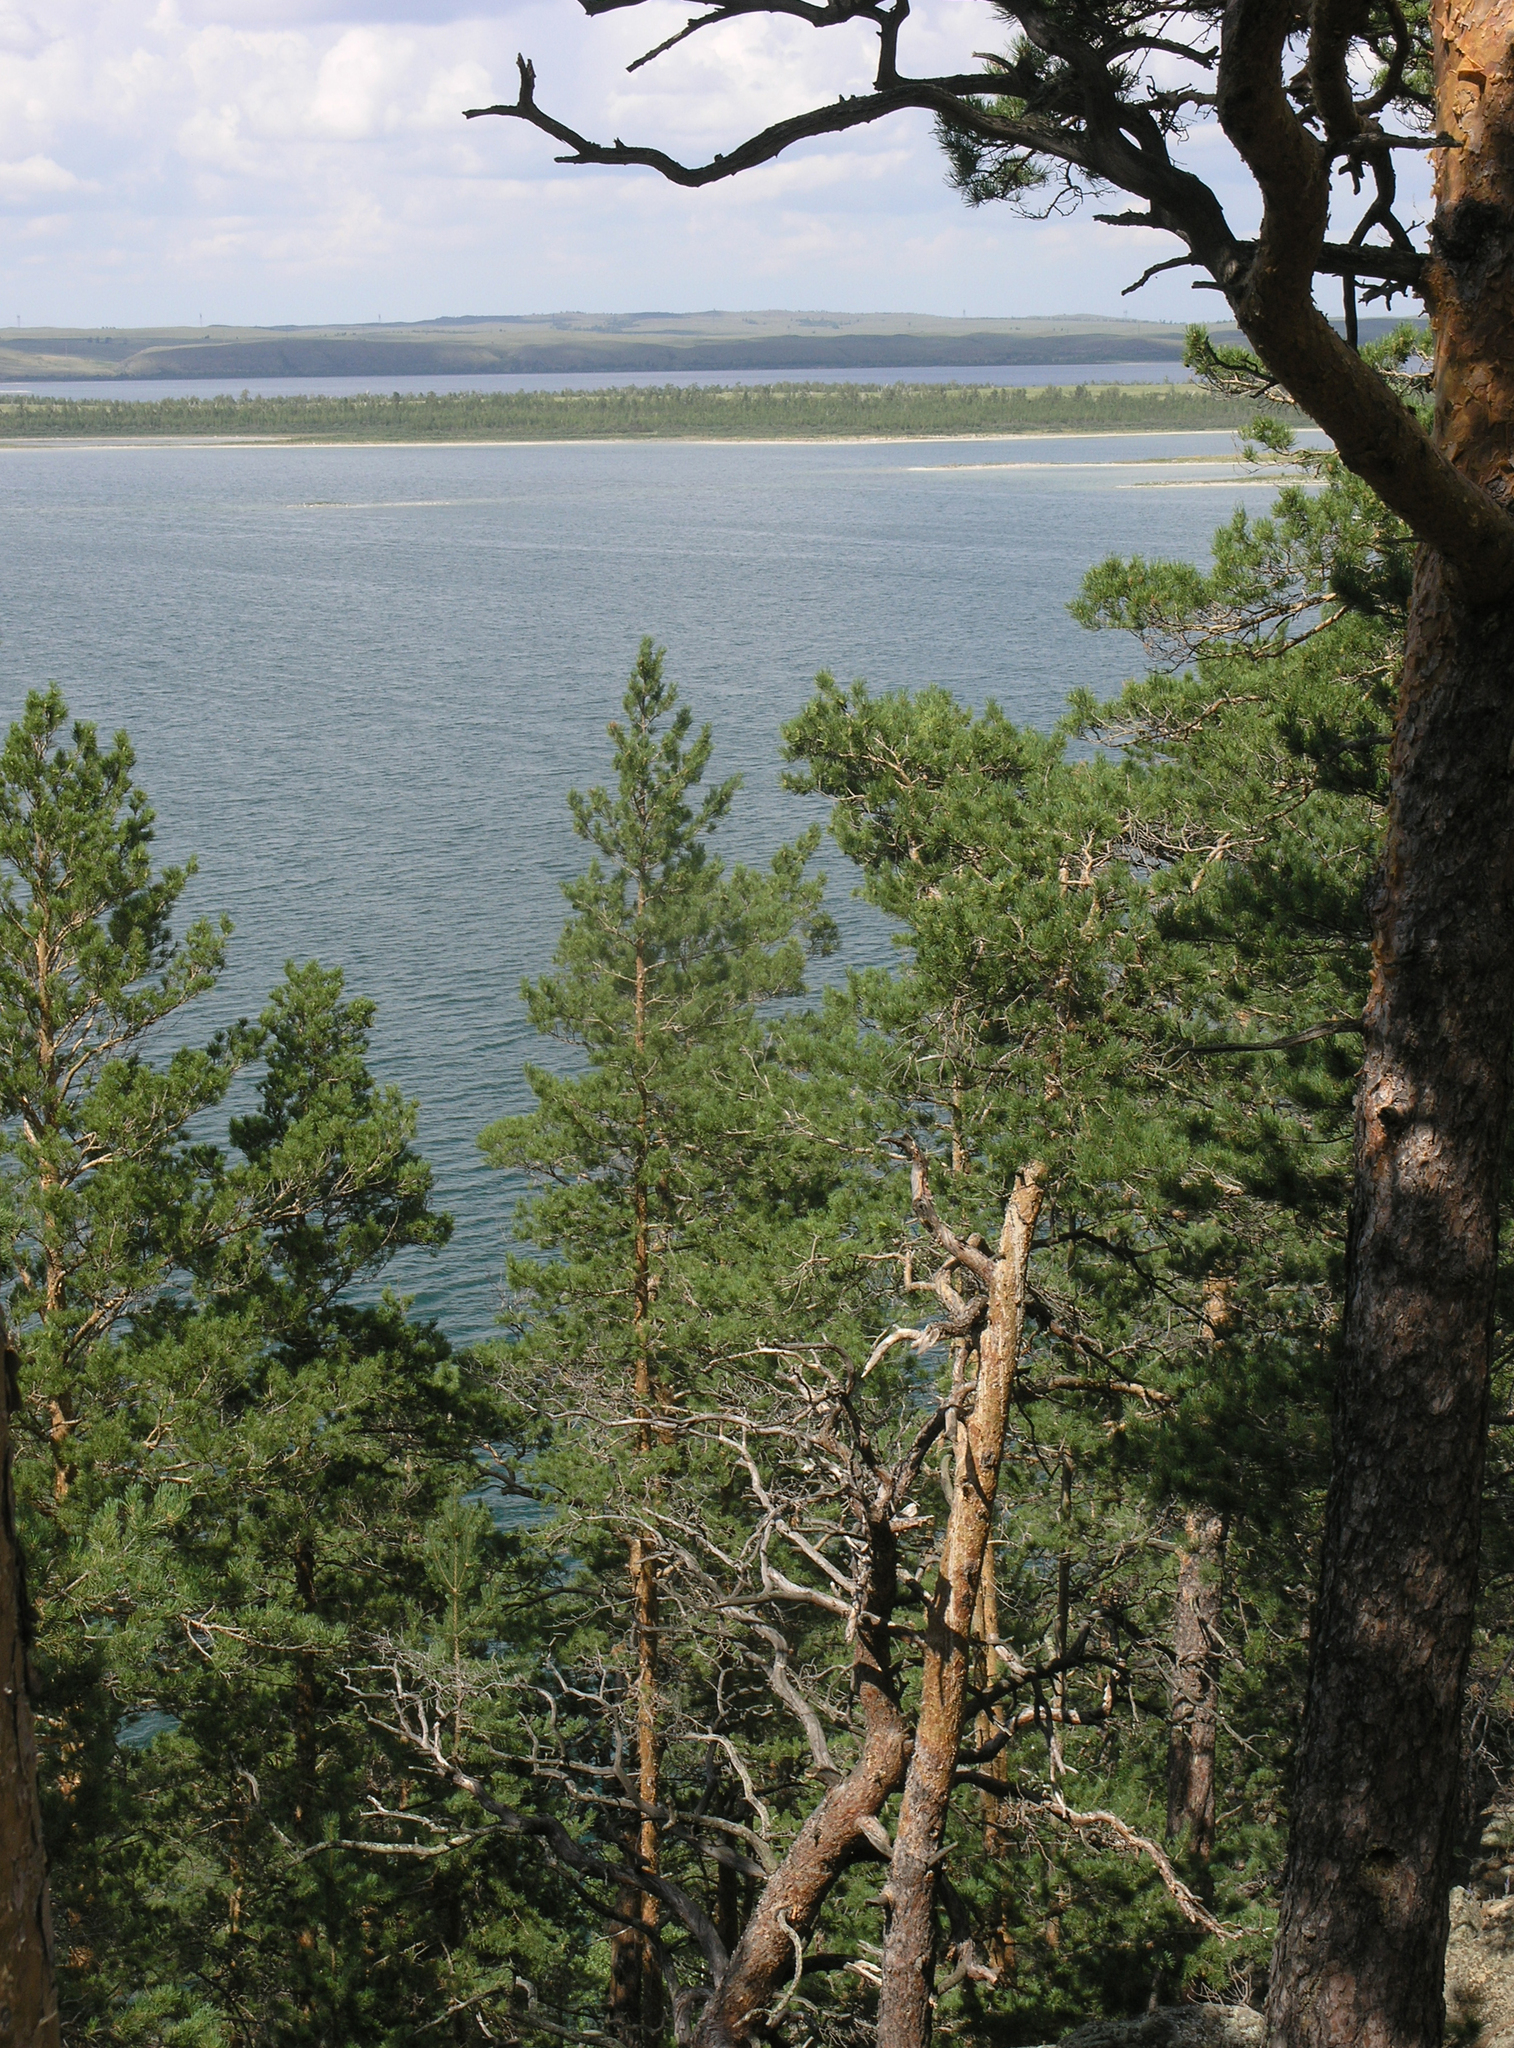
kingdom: Plantae
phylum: Tracheophyta
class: Pinopsida
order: Pinales
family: Pinaceae
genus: Pinus
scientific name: Pinus sylvestris
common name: Scots pine
